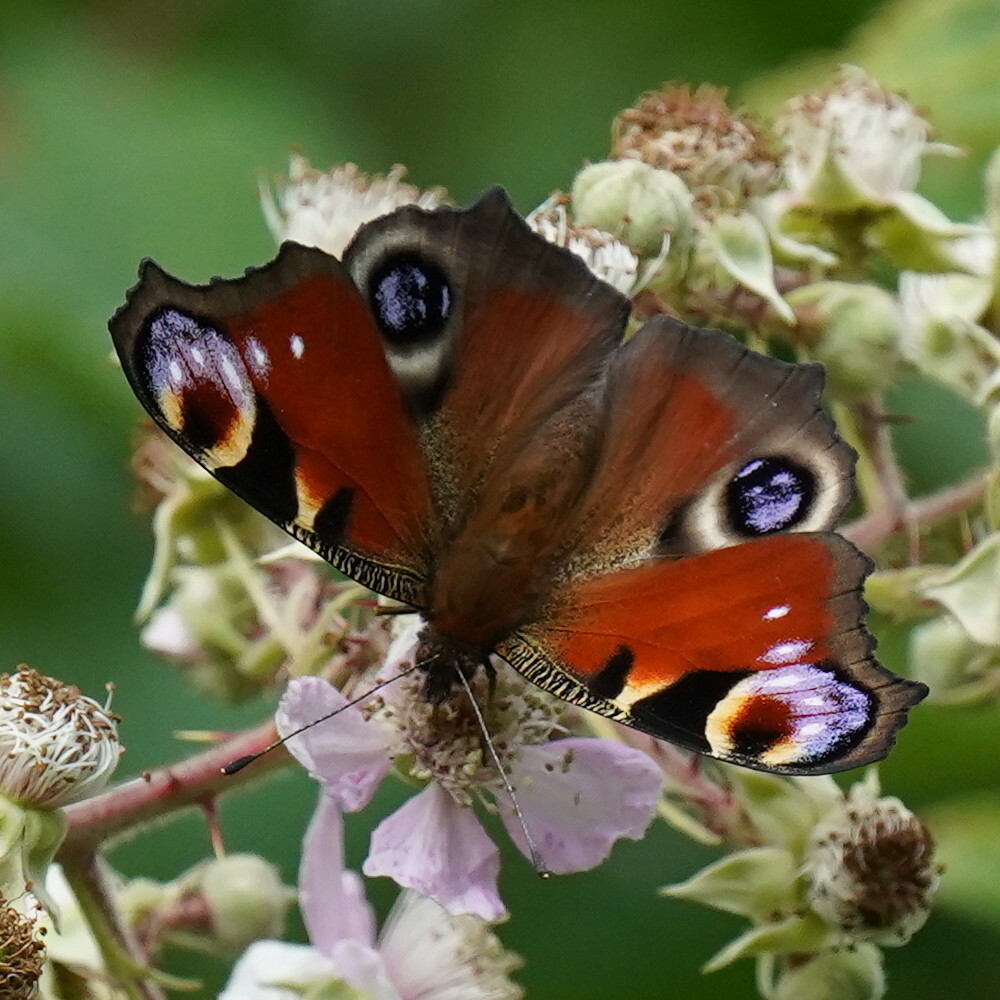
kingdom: Animalia
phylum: Arthropoda
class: Insecta
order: Lepidoptera
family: Nymphalidae
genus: Aglais
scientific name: Aglais io
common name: Peacock
